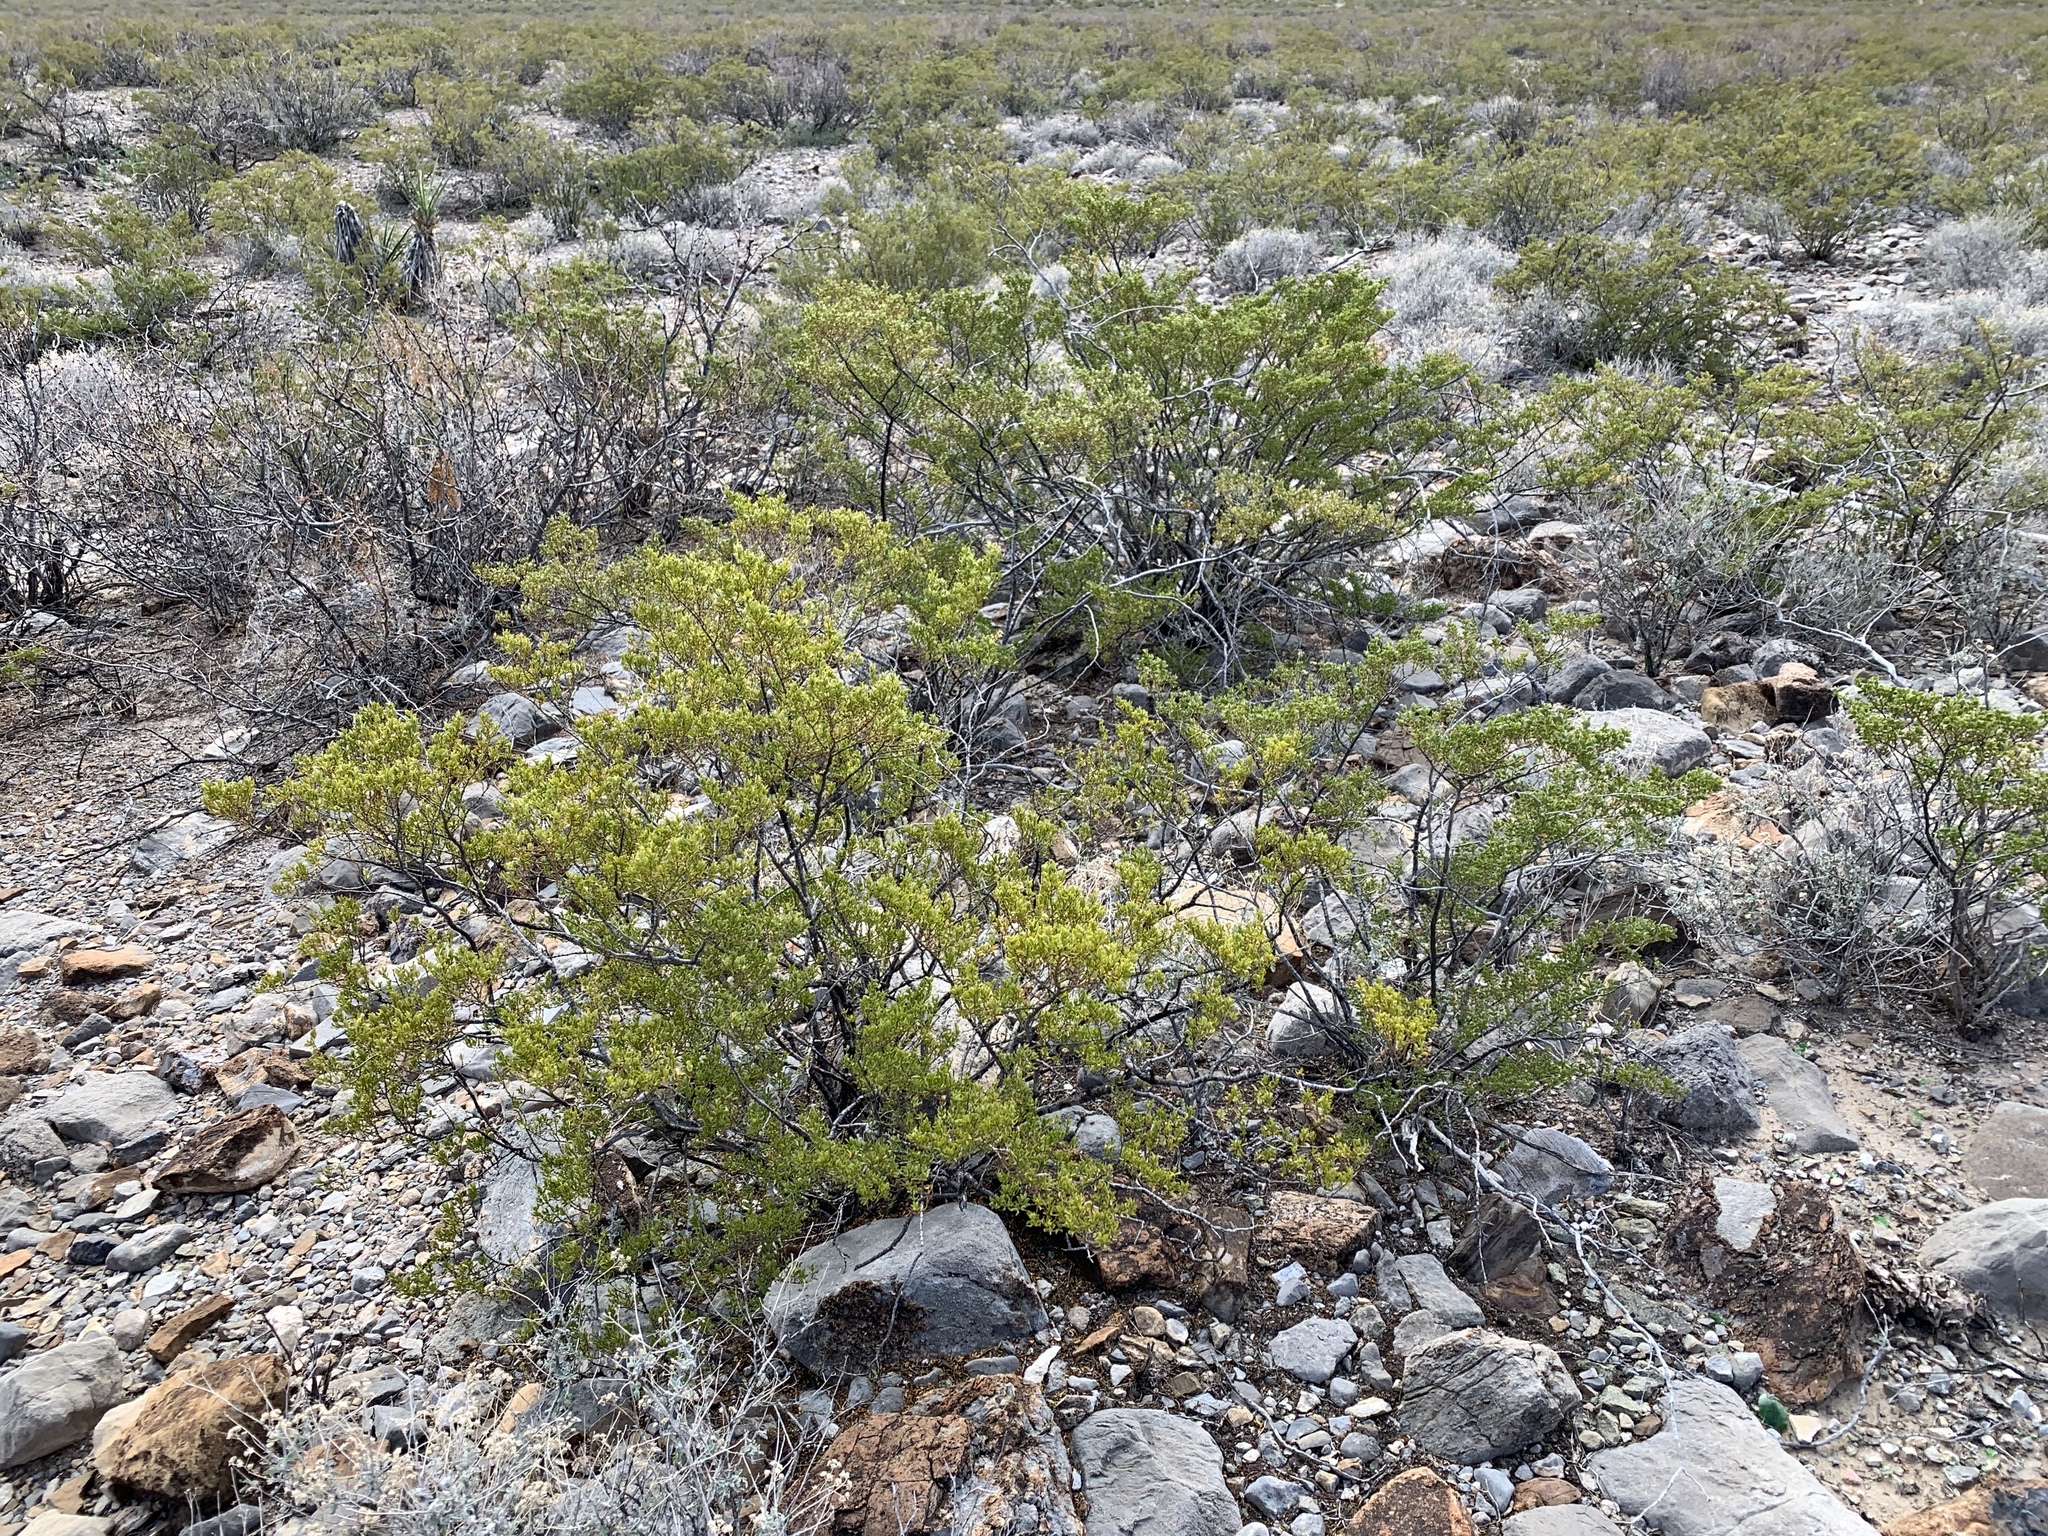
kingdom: Plantae
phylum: Tracheophyta
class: Magnoliopsida
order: Zygophyllales
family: Zygophyllaceae
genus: Larrea
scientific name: Larrea tridentata
